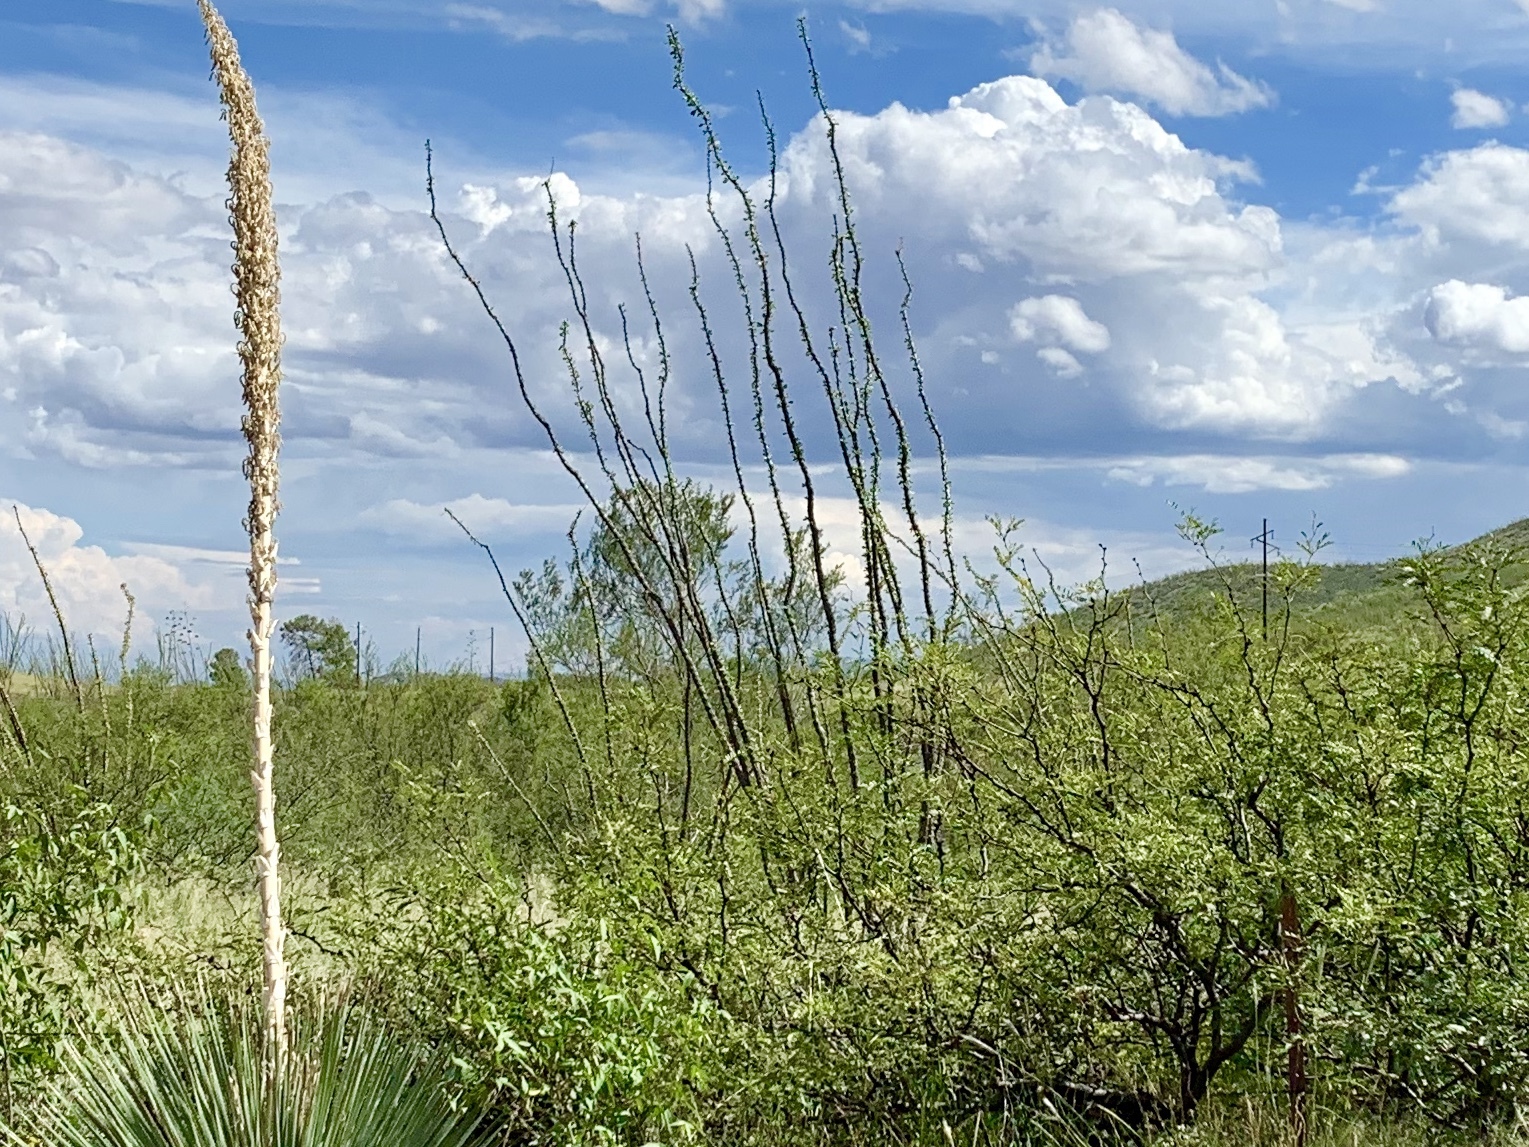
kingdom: Plantae
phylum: Tracheophyta
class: Magnoliopsida
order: Ericales
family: Fouquieriaceae
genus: Fouquieria
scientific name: Fouquieria splendens
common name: Vine-cactus
